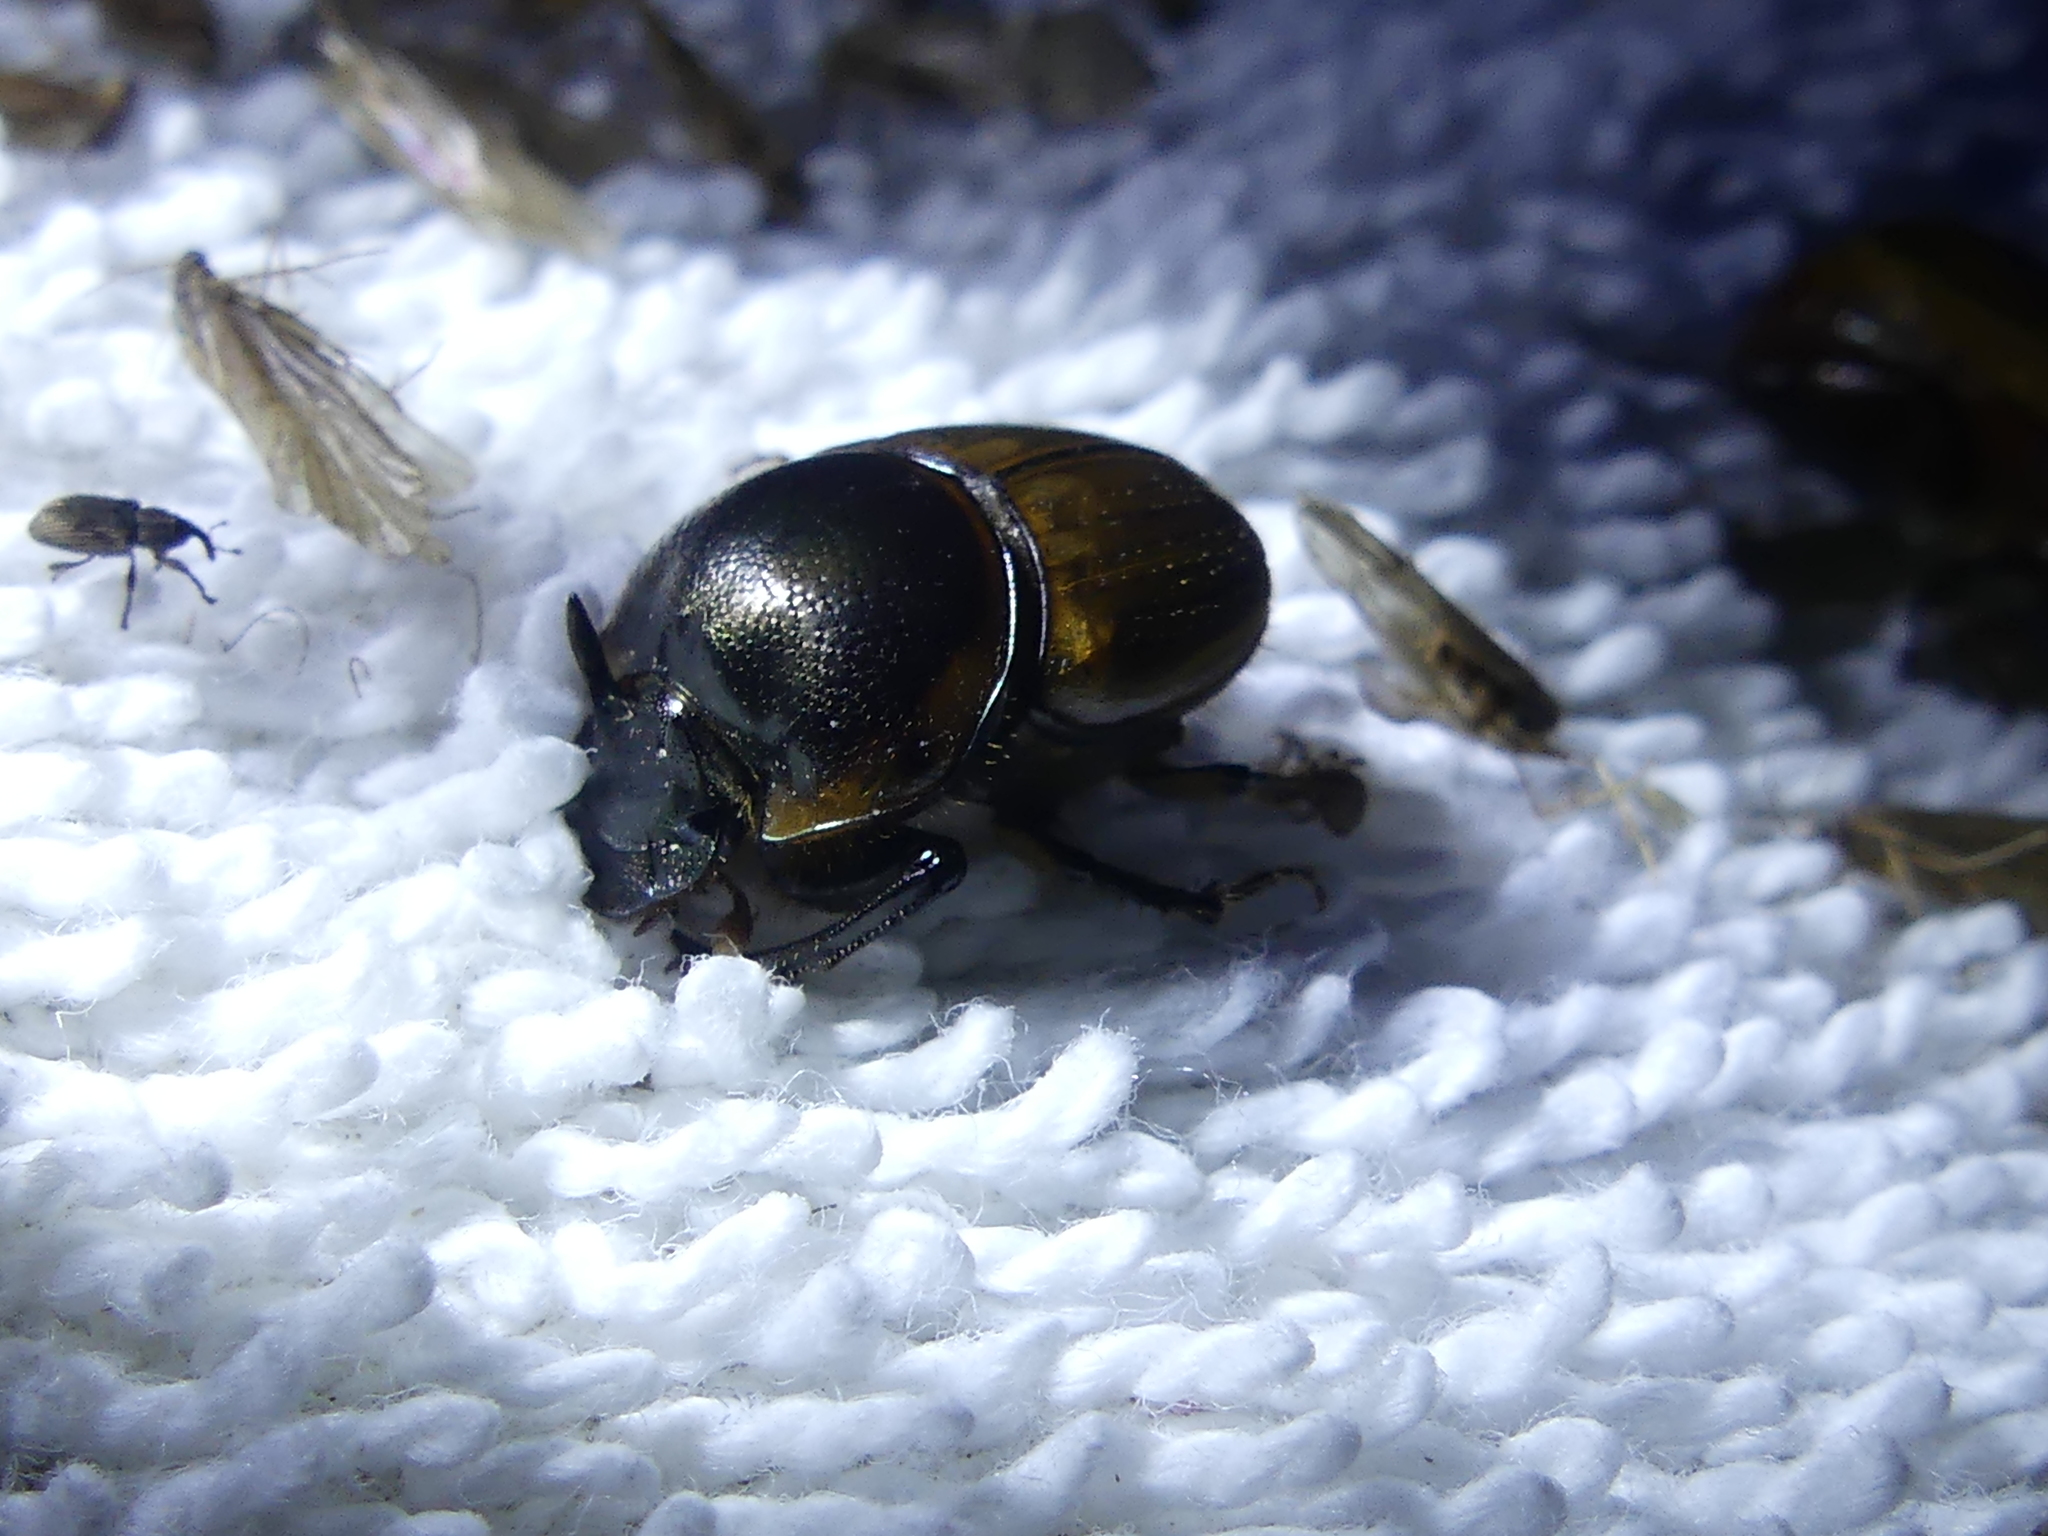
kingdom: Animalia
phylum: Arthropoda
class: Insecta
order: Coleoptera
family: Scarabaeidae
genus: Digitonthophagus
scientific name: Digitonthophagus gazella
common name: Brown dung beetle
